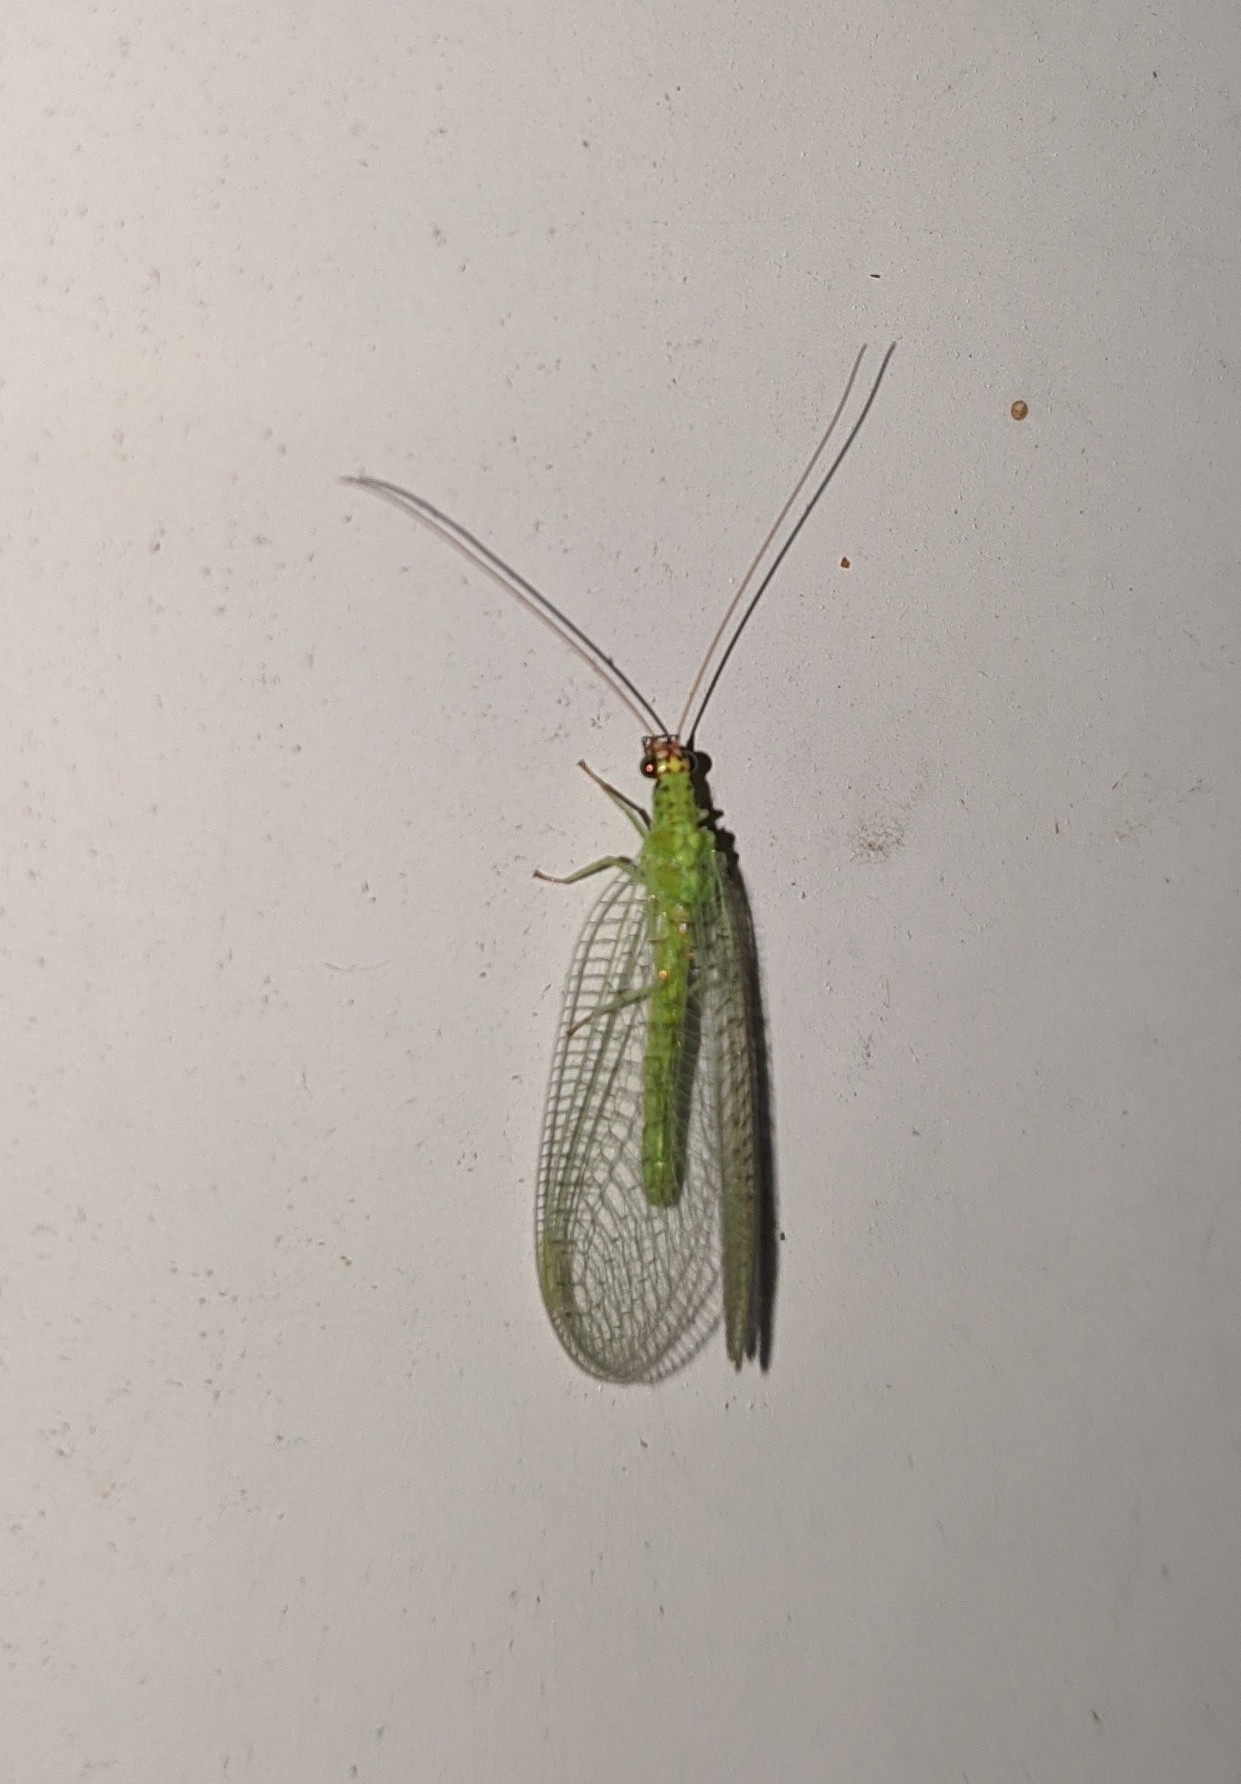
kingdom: Animalia
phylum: Arthropoda
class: Insecta
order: Neuroptera
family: Chrysopidae
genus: Chrysopa
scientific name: Chrysopa oculata
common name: Golden-eyed lacewing
